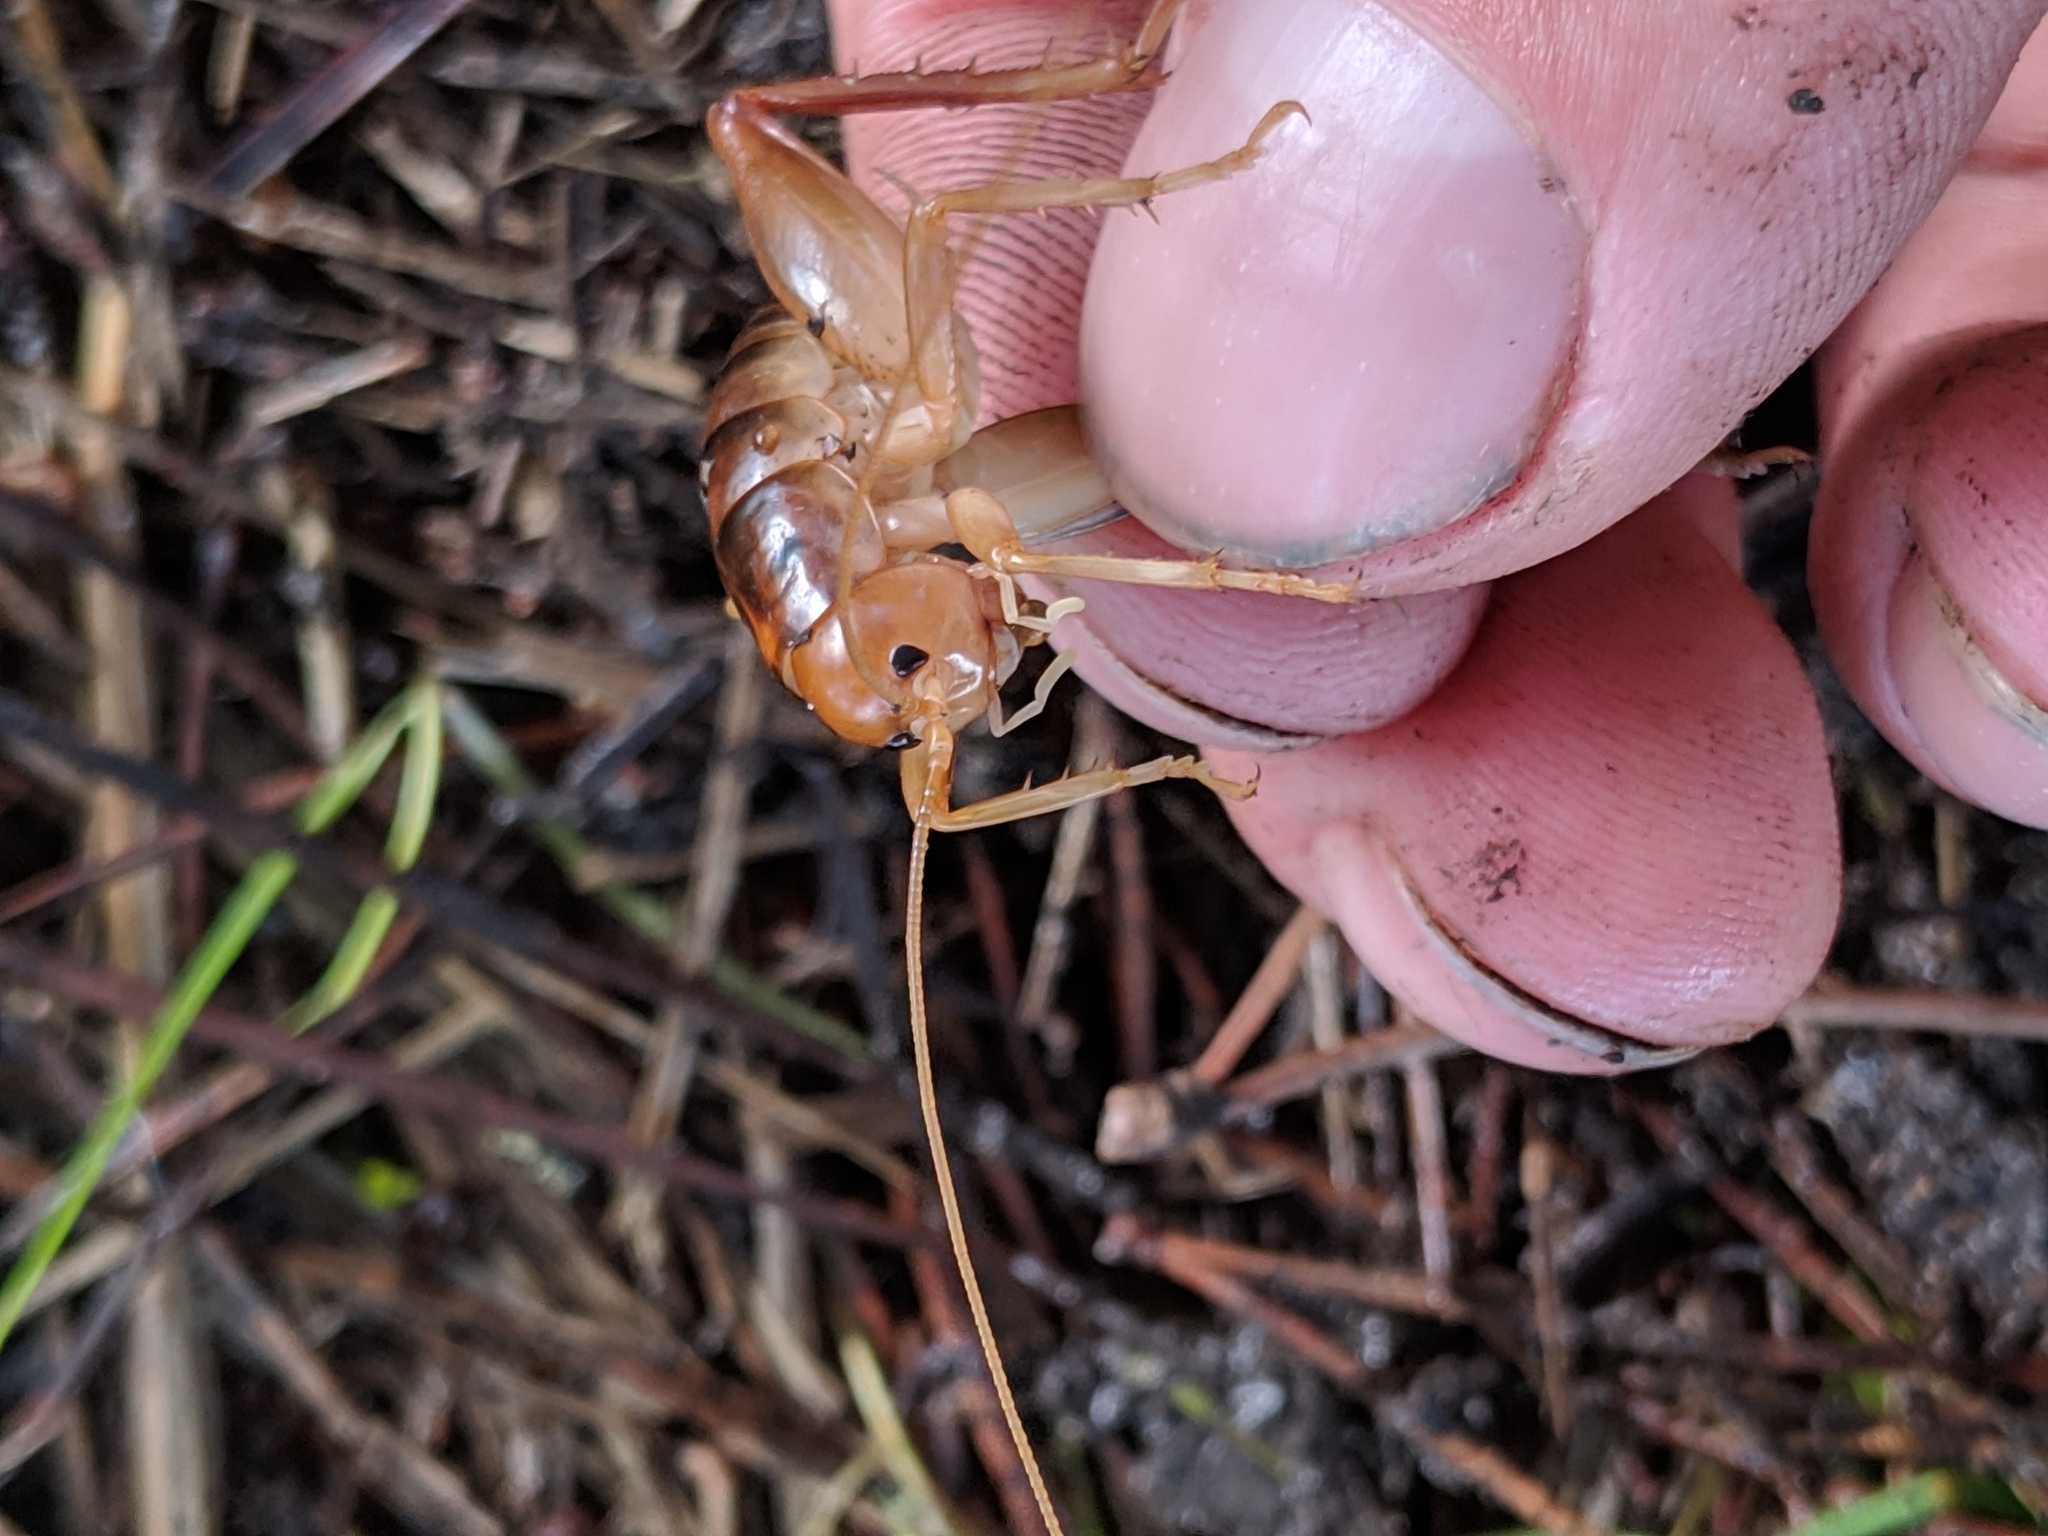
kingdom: Animalia
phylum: Arthropoda
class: Insecta
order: Orthoptera
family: Rhaphidophoridae
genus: Ceuthophilus
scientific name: Ceuthophilus californianus
